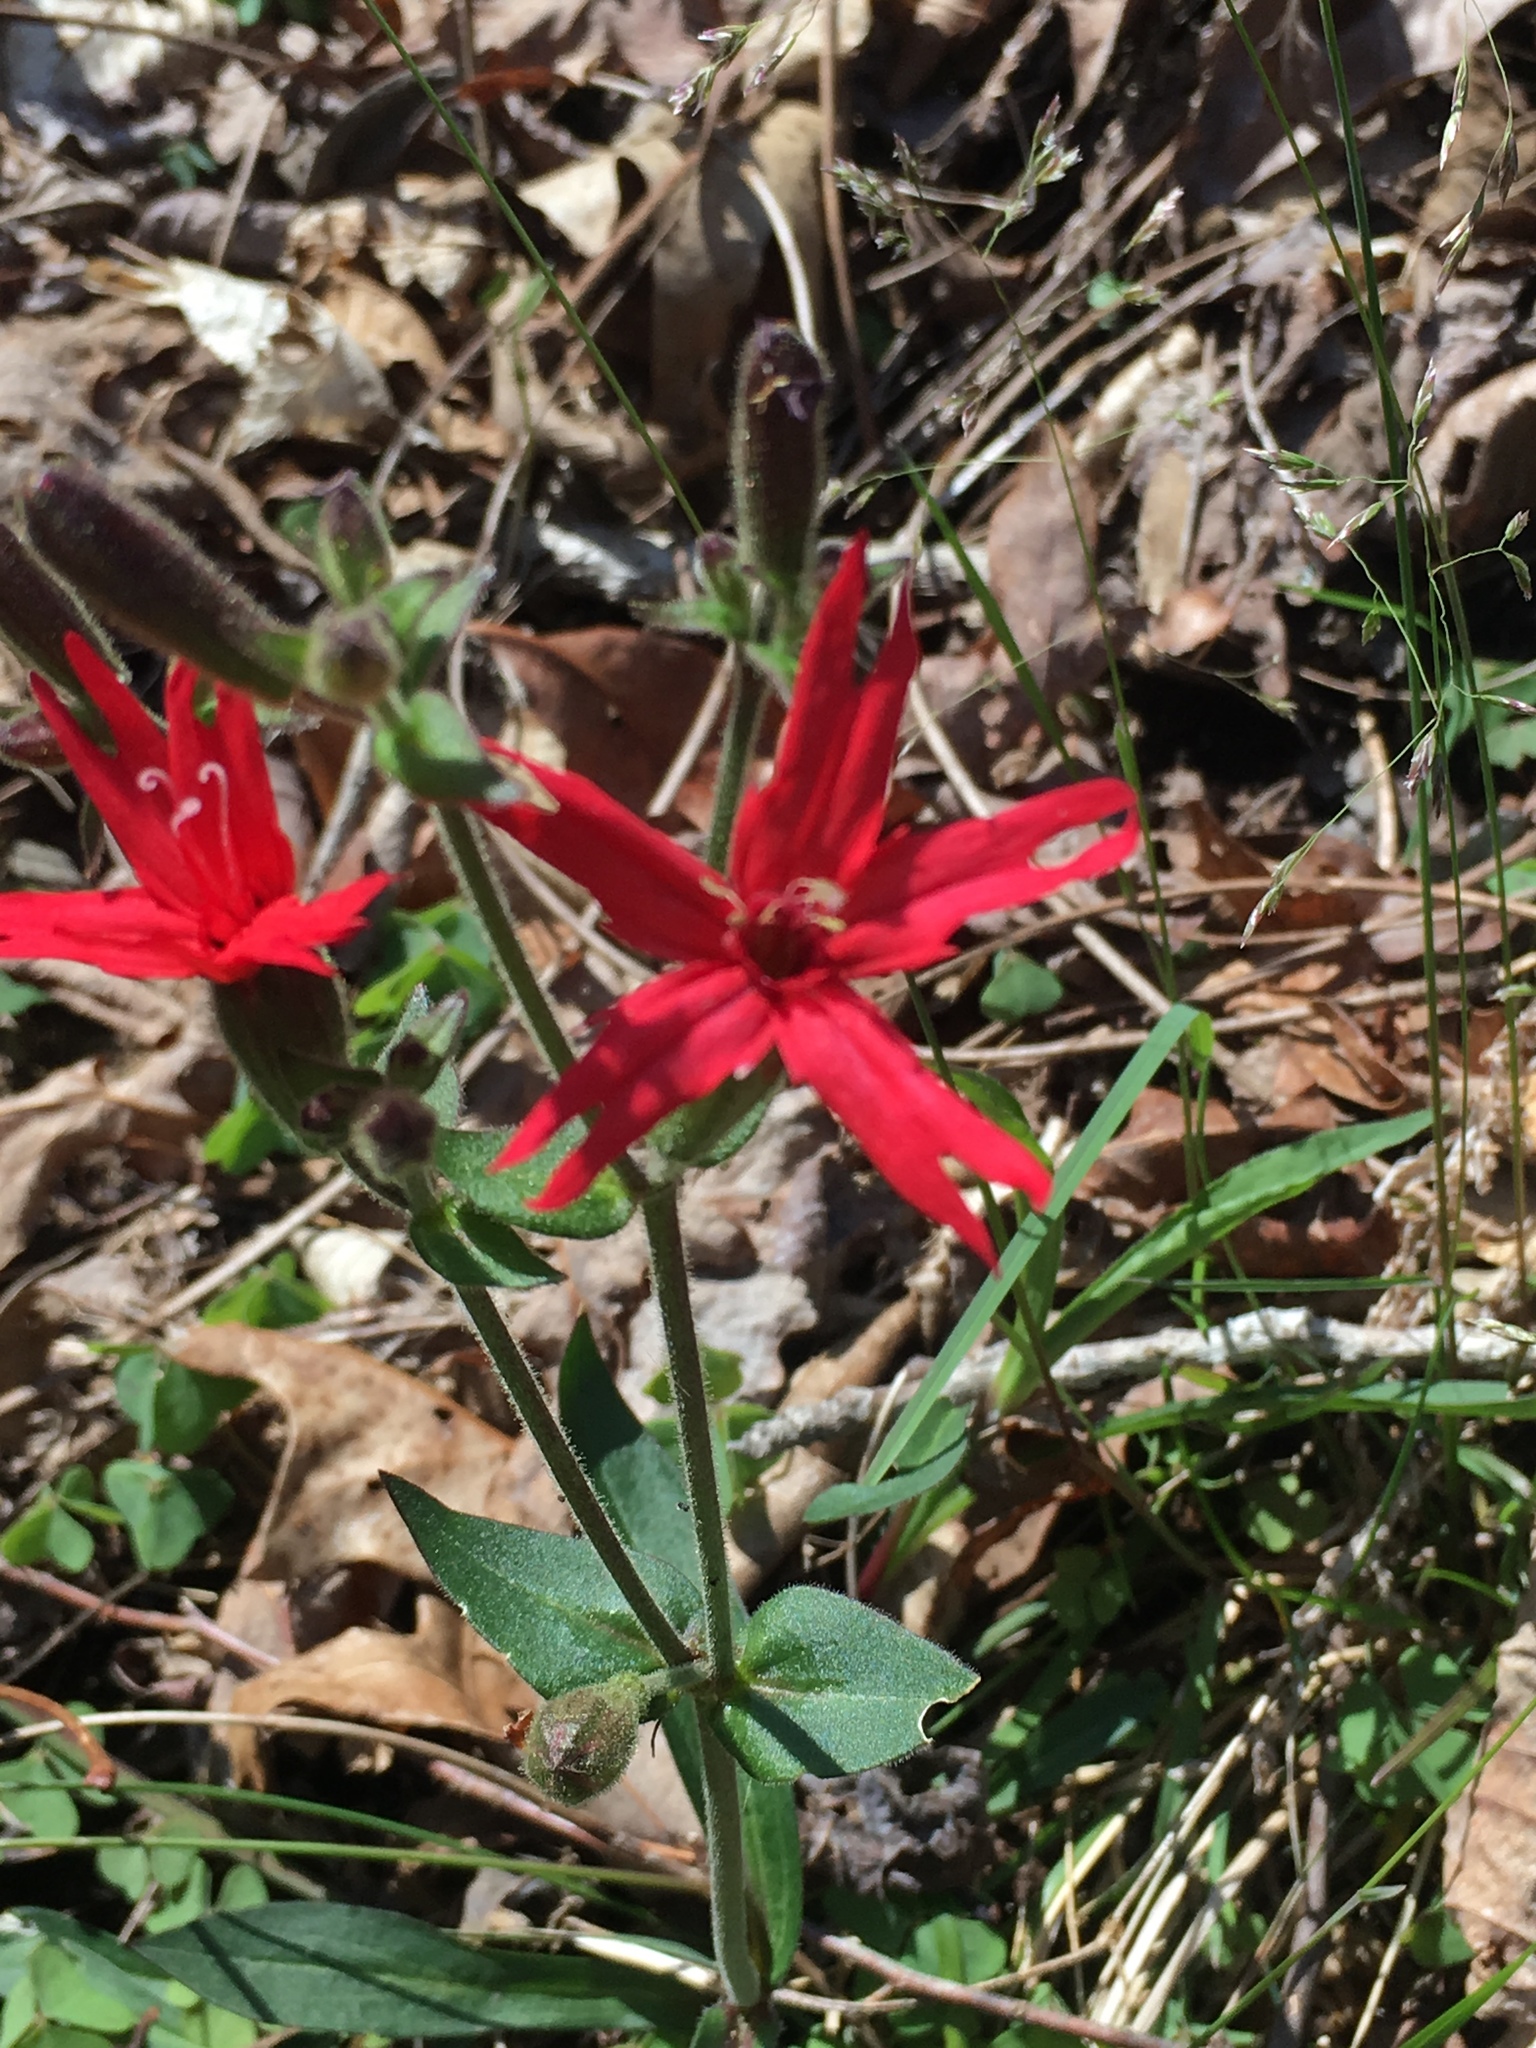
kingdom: Plantae
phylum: Tracheophyta
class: Magnoliopsida
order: Caryophyllales
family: Caryophyllaceae
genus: Silene
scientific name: Silene virginica
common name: Fire-pink
